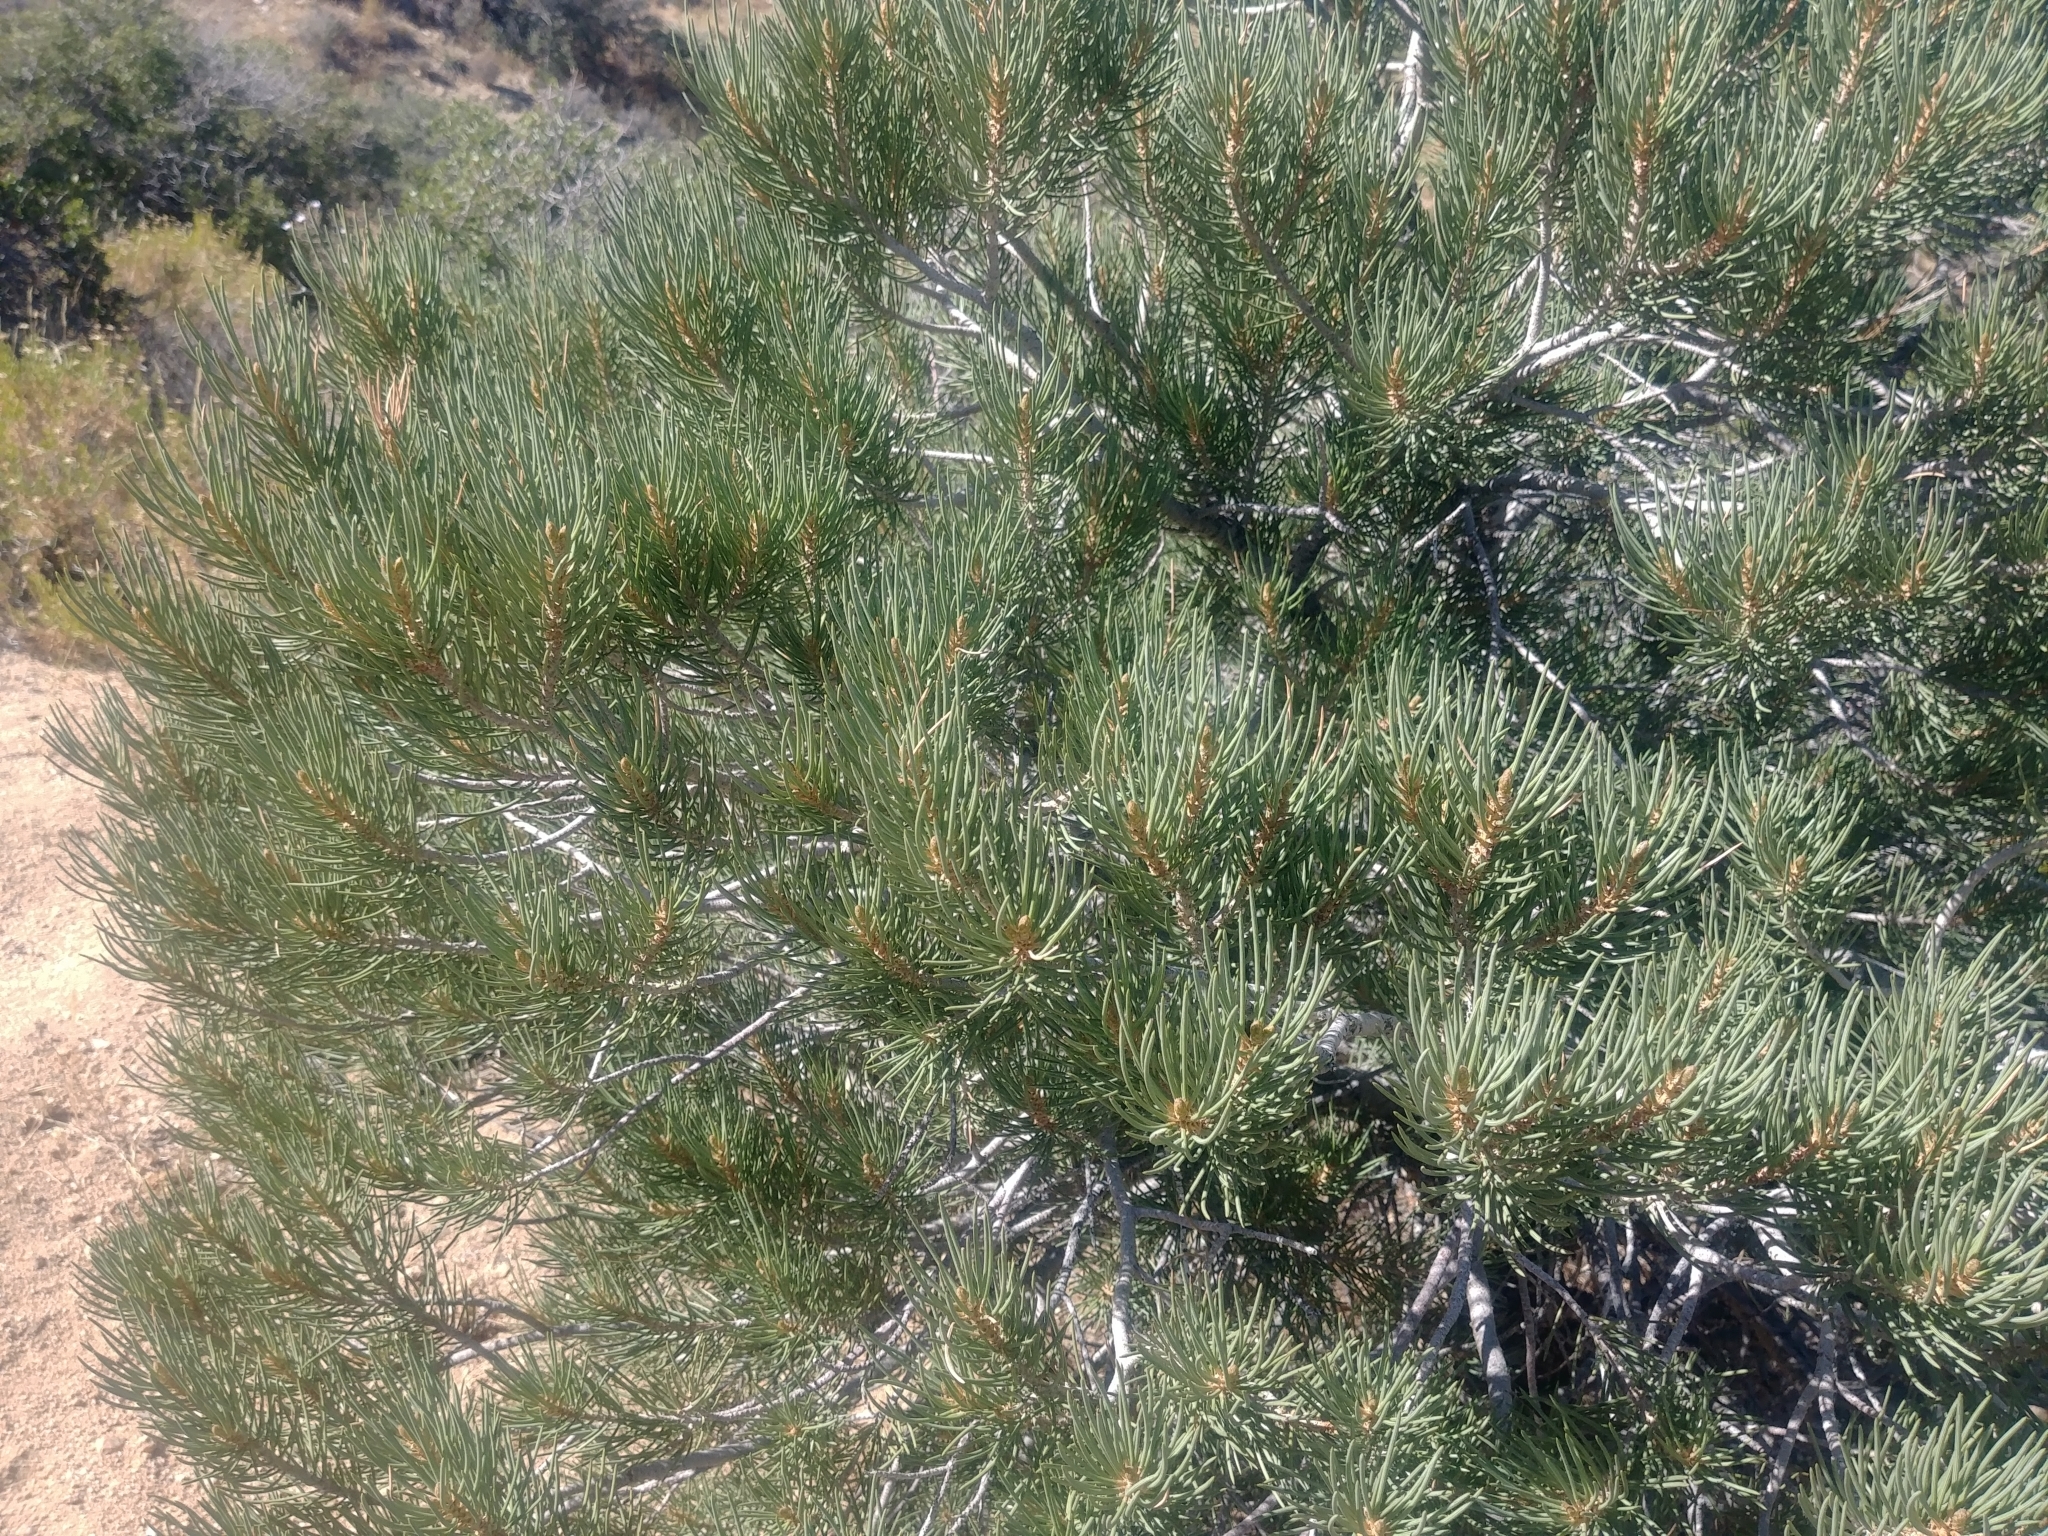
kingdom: Plantae
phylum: Tracheophyta
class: Pinopsida
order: Pinales
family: Pinaceae
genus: Pinus
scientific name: Pinus monophylla
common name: One-leaved nut pine
